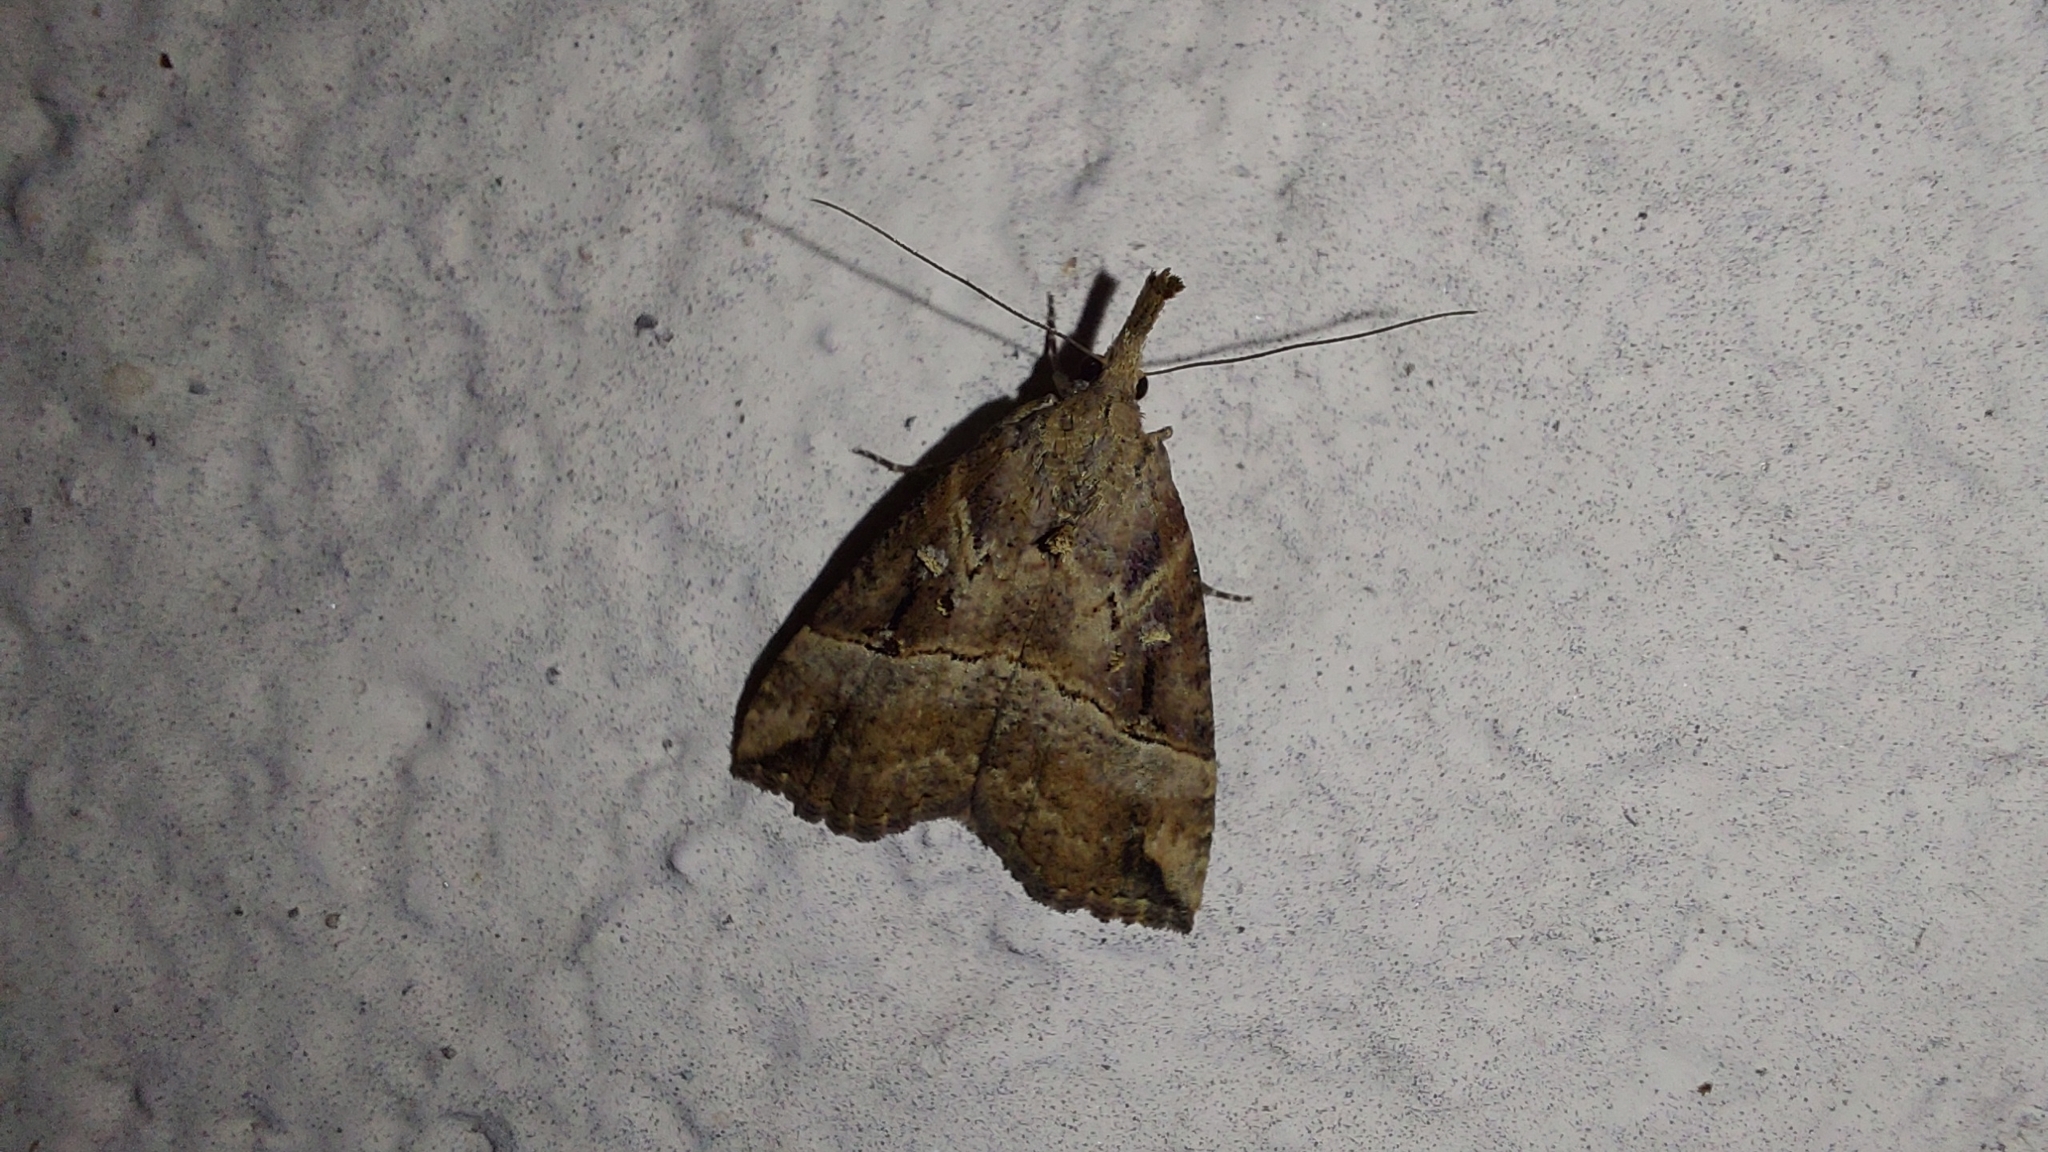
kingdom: Animalia
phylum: Arthropoda
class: Insecta
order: Lepidoptera
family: Erebidae
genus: Hypena
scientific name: Hypena rostralis
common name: Buttoned snout
